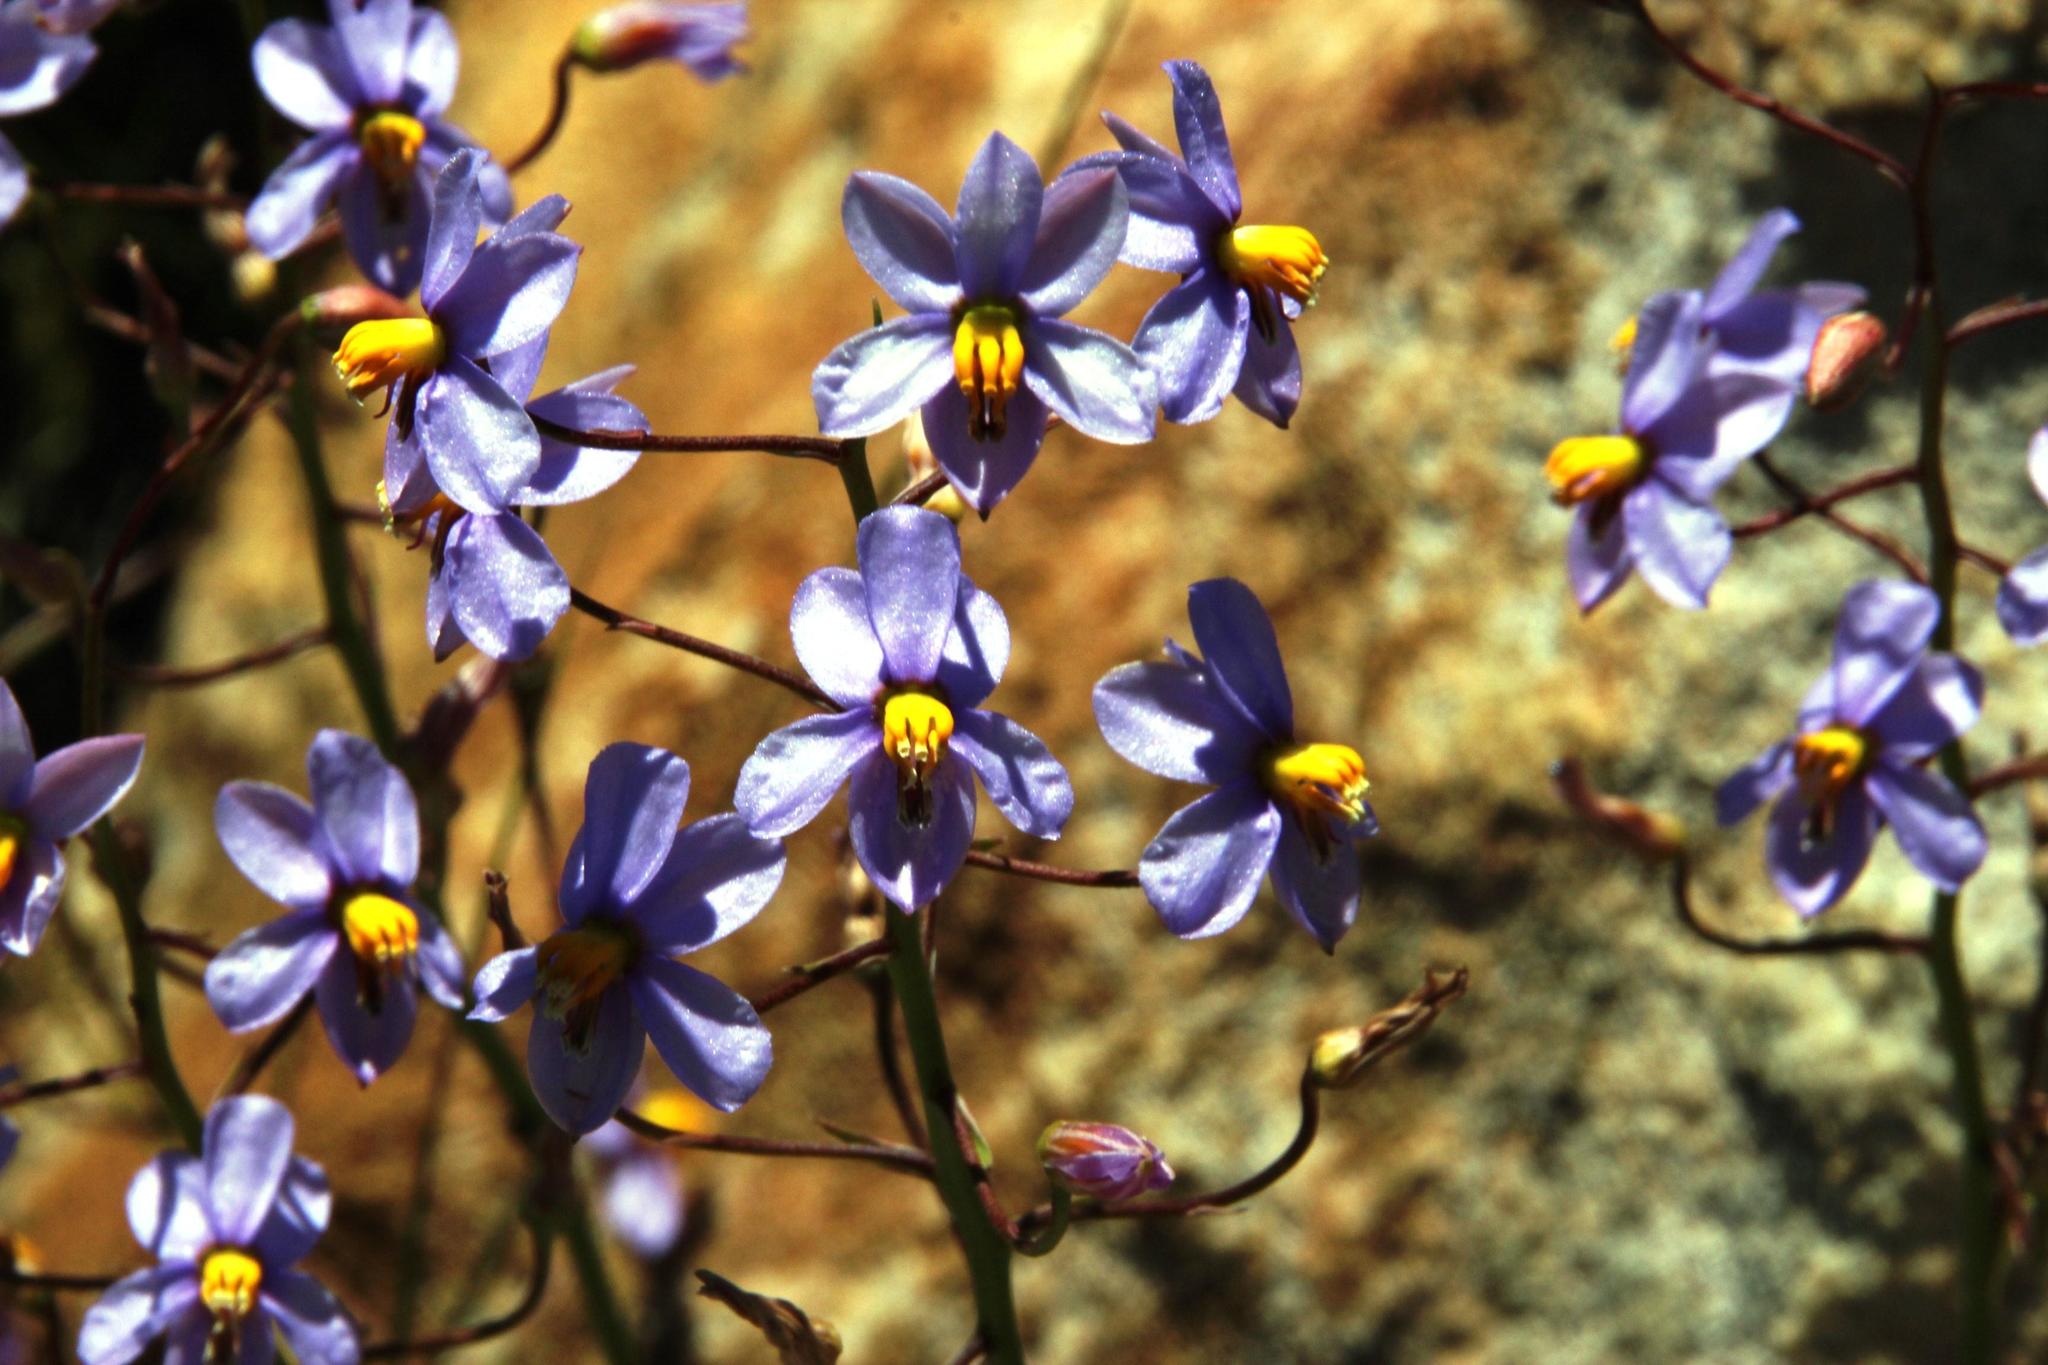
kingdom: Plantae
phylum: Tracheophyta
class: Liliopsida
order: Asparagales
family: Tecophilaeaceae
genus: Cyanella
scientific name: Cyanella hyacinthoides
